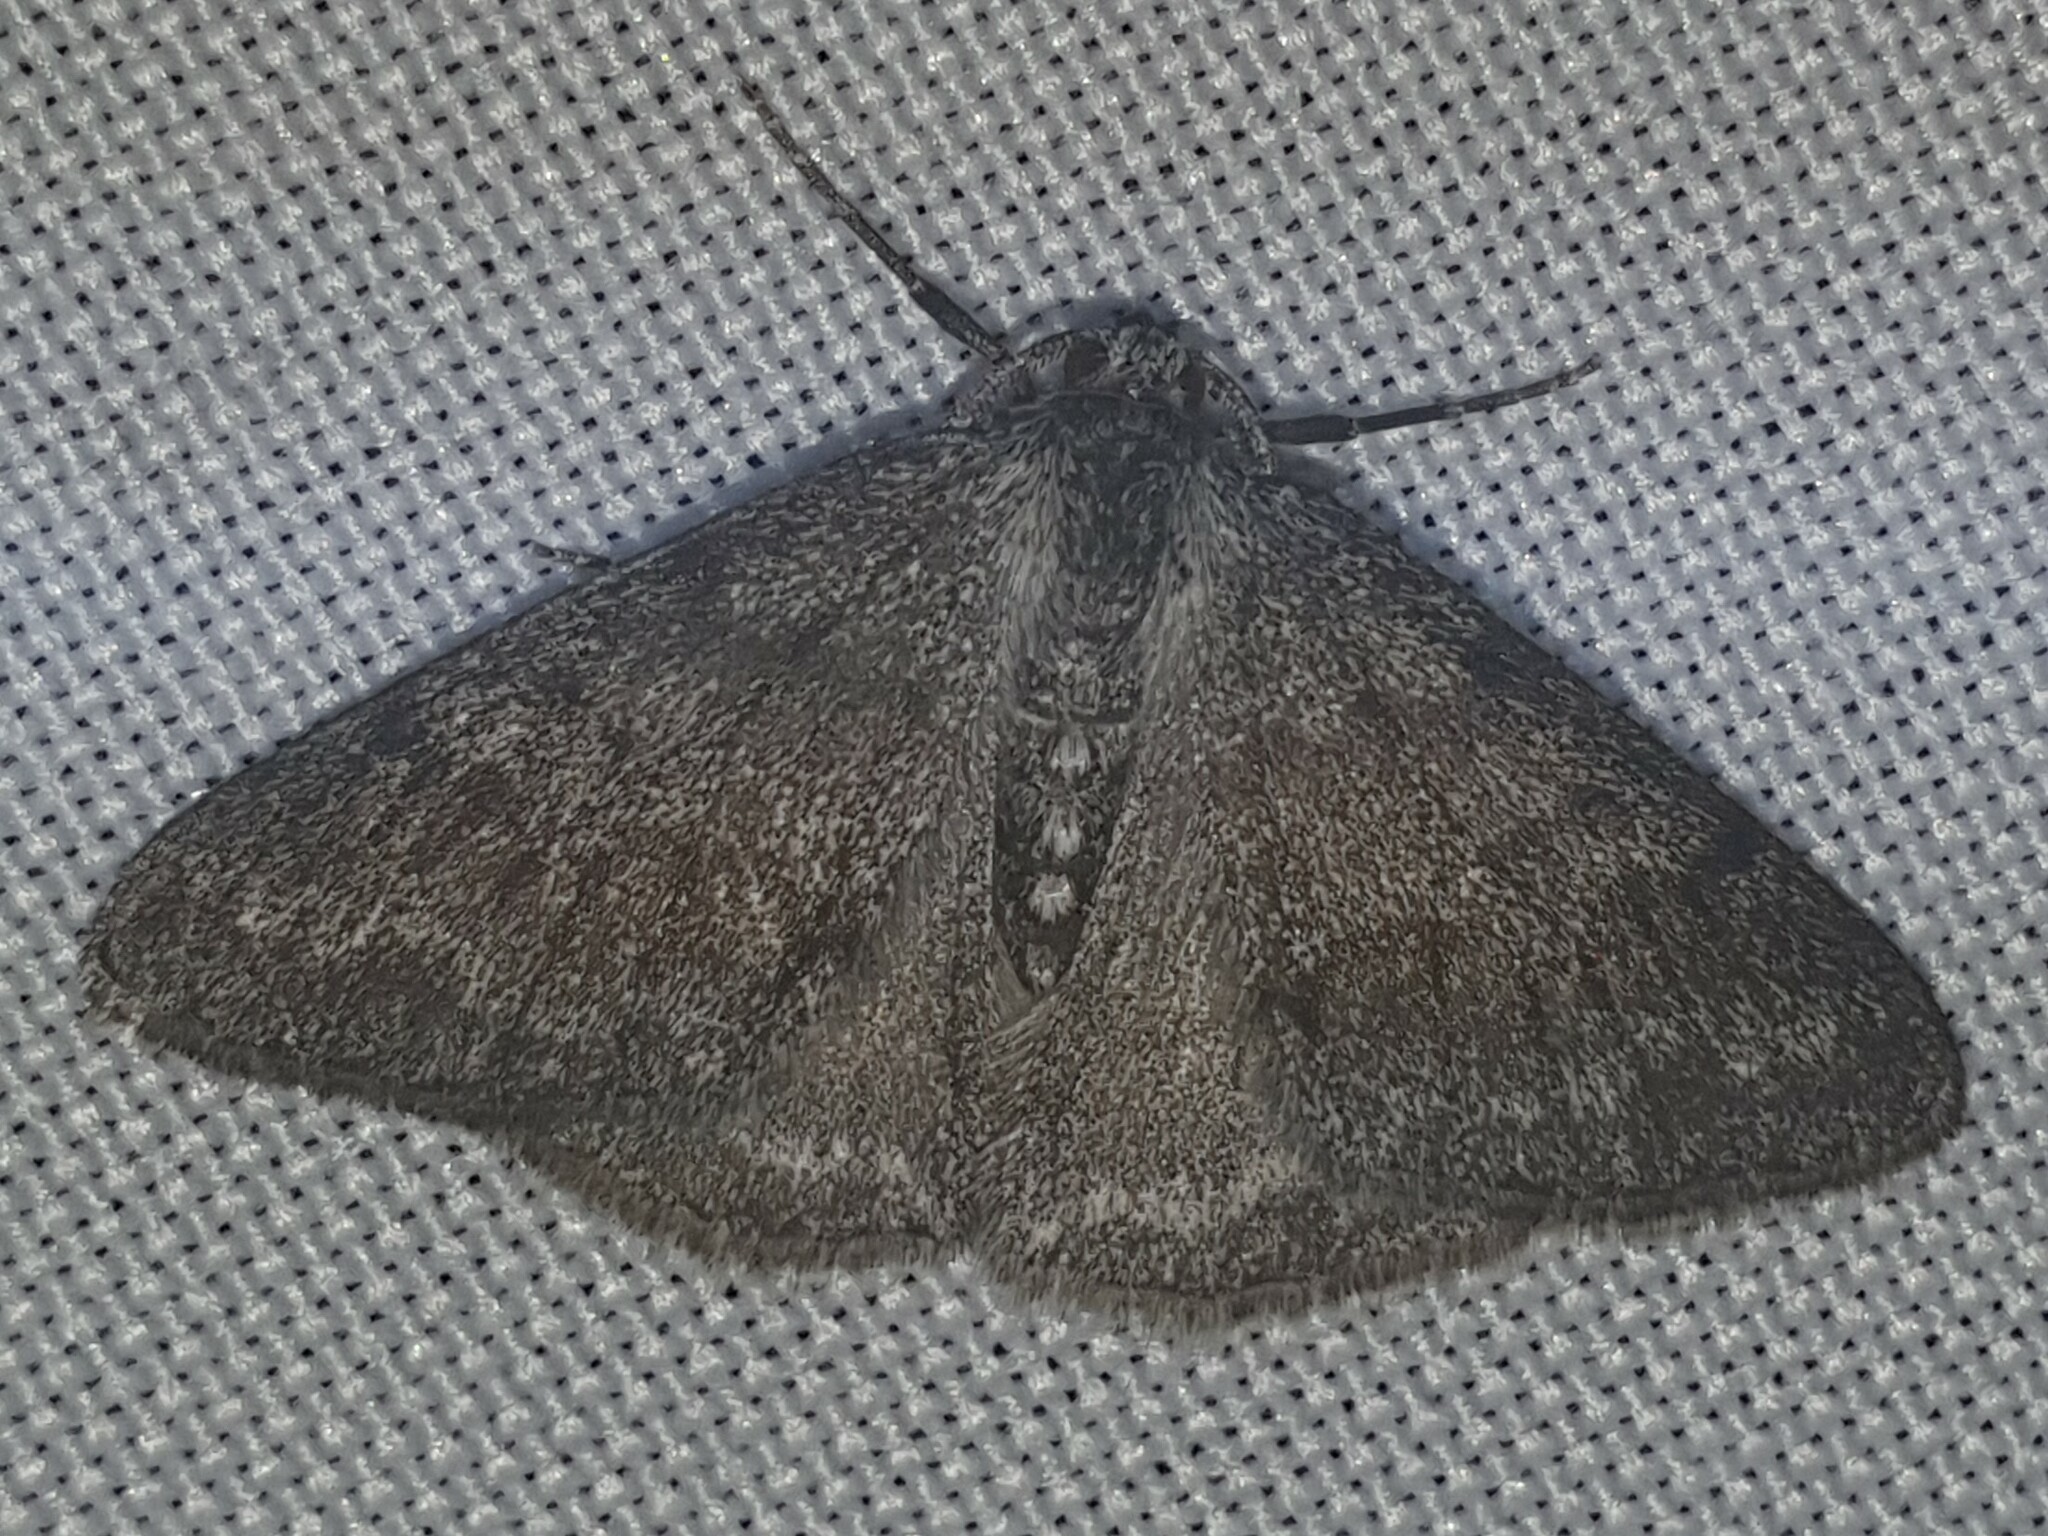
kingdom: Animalia
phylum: Arthropoda
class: Insecta
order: Lepidoptera
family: Geometridae
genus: Pseudoterpna
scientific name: Pseudoterpna coronillaria
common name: Jersey emerald
